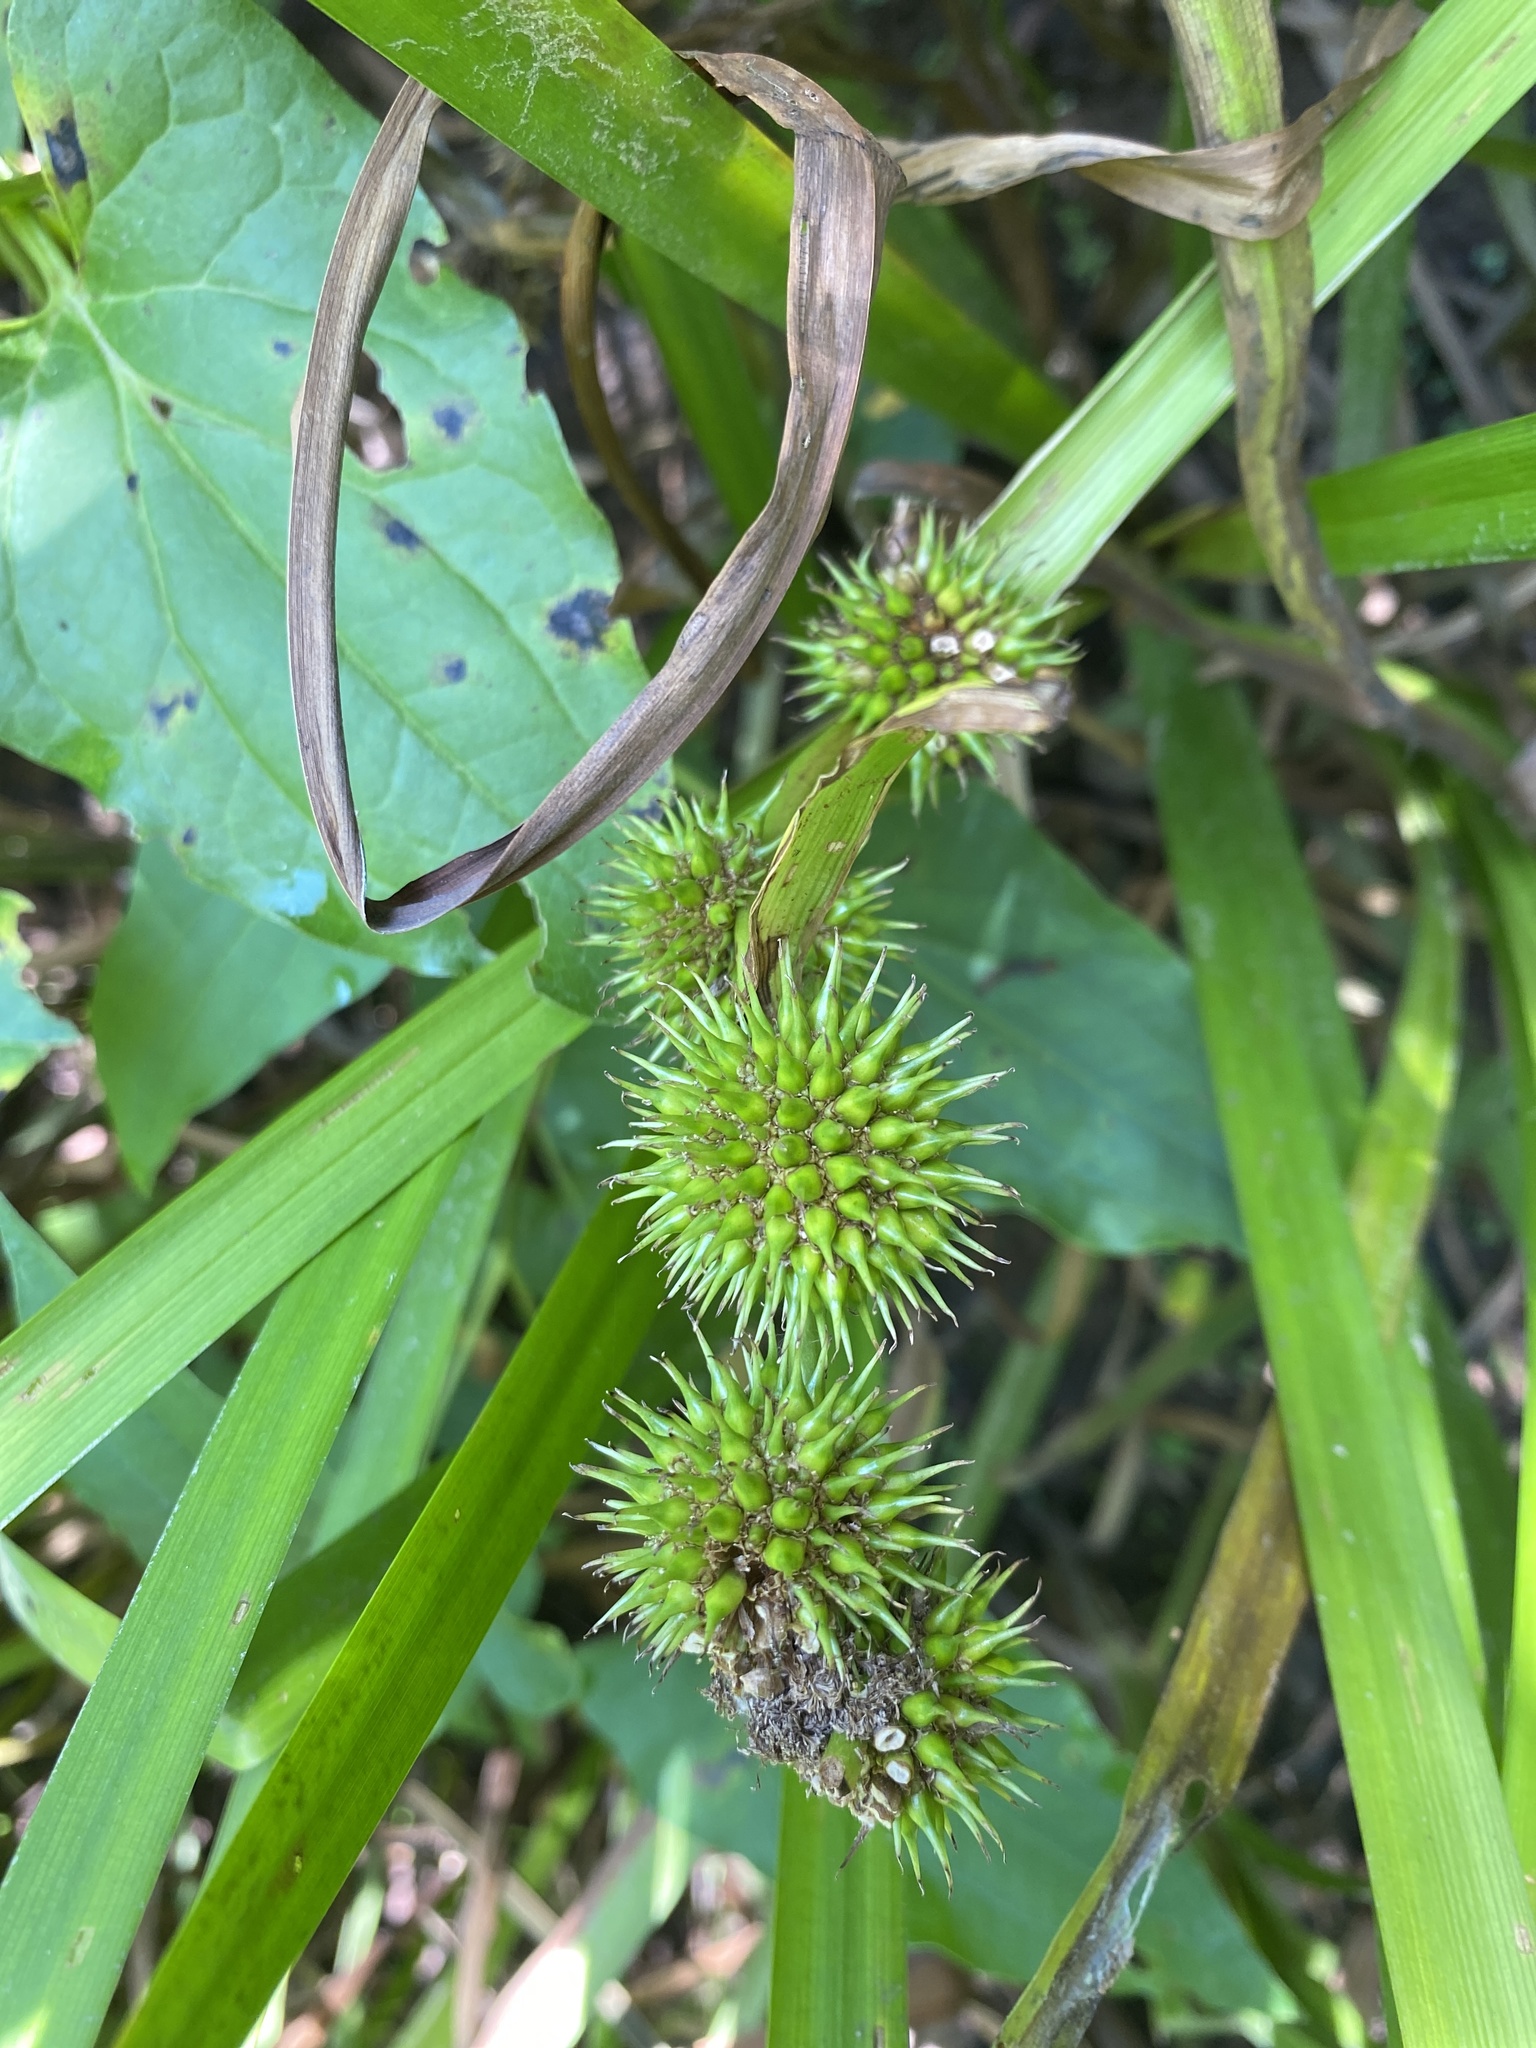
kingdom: Plantae
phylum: Tracheophyta
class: Liliopsida
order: Poales
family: Typhaceae
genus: Sparganium
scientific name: Sparganium americanum
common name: American burreed
